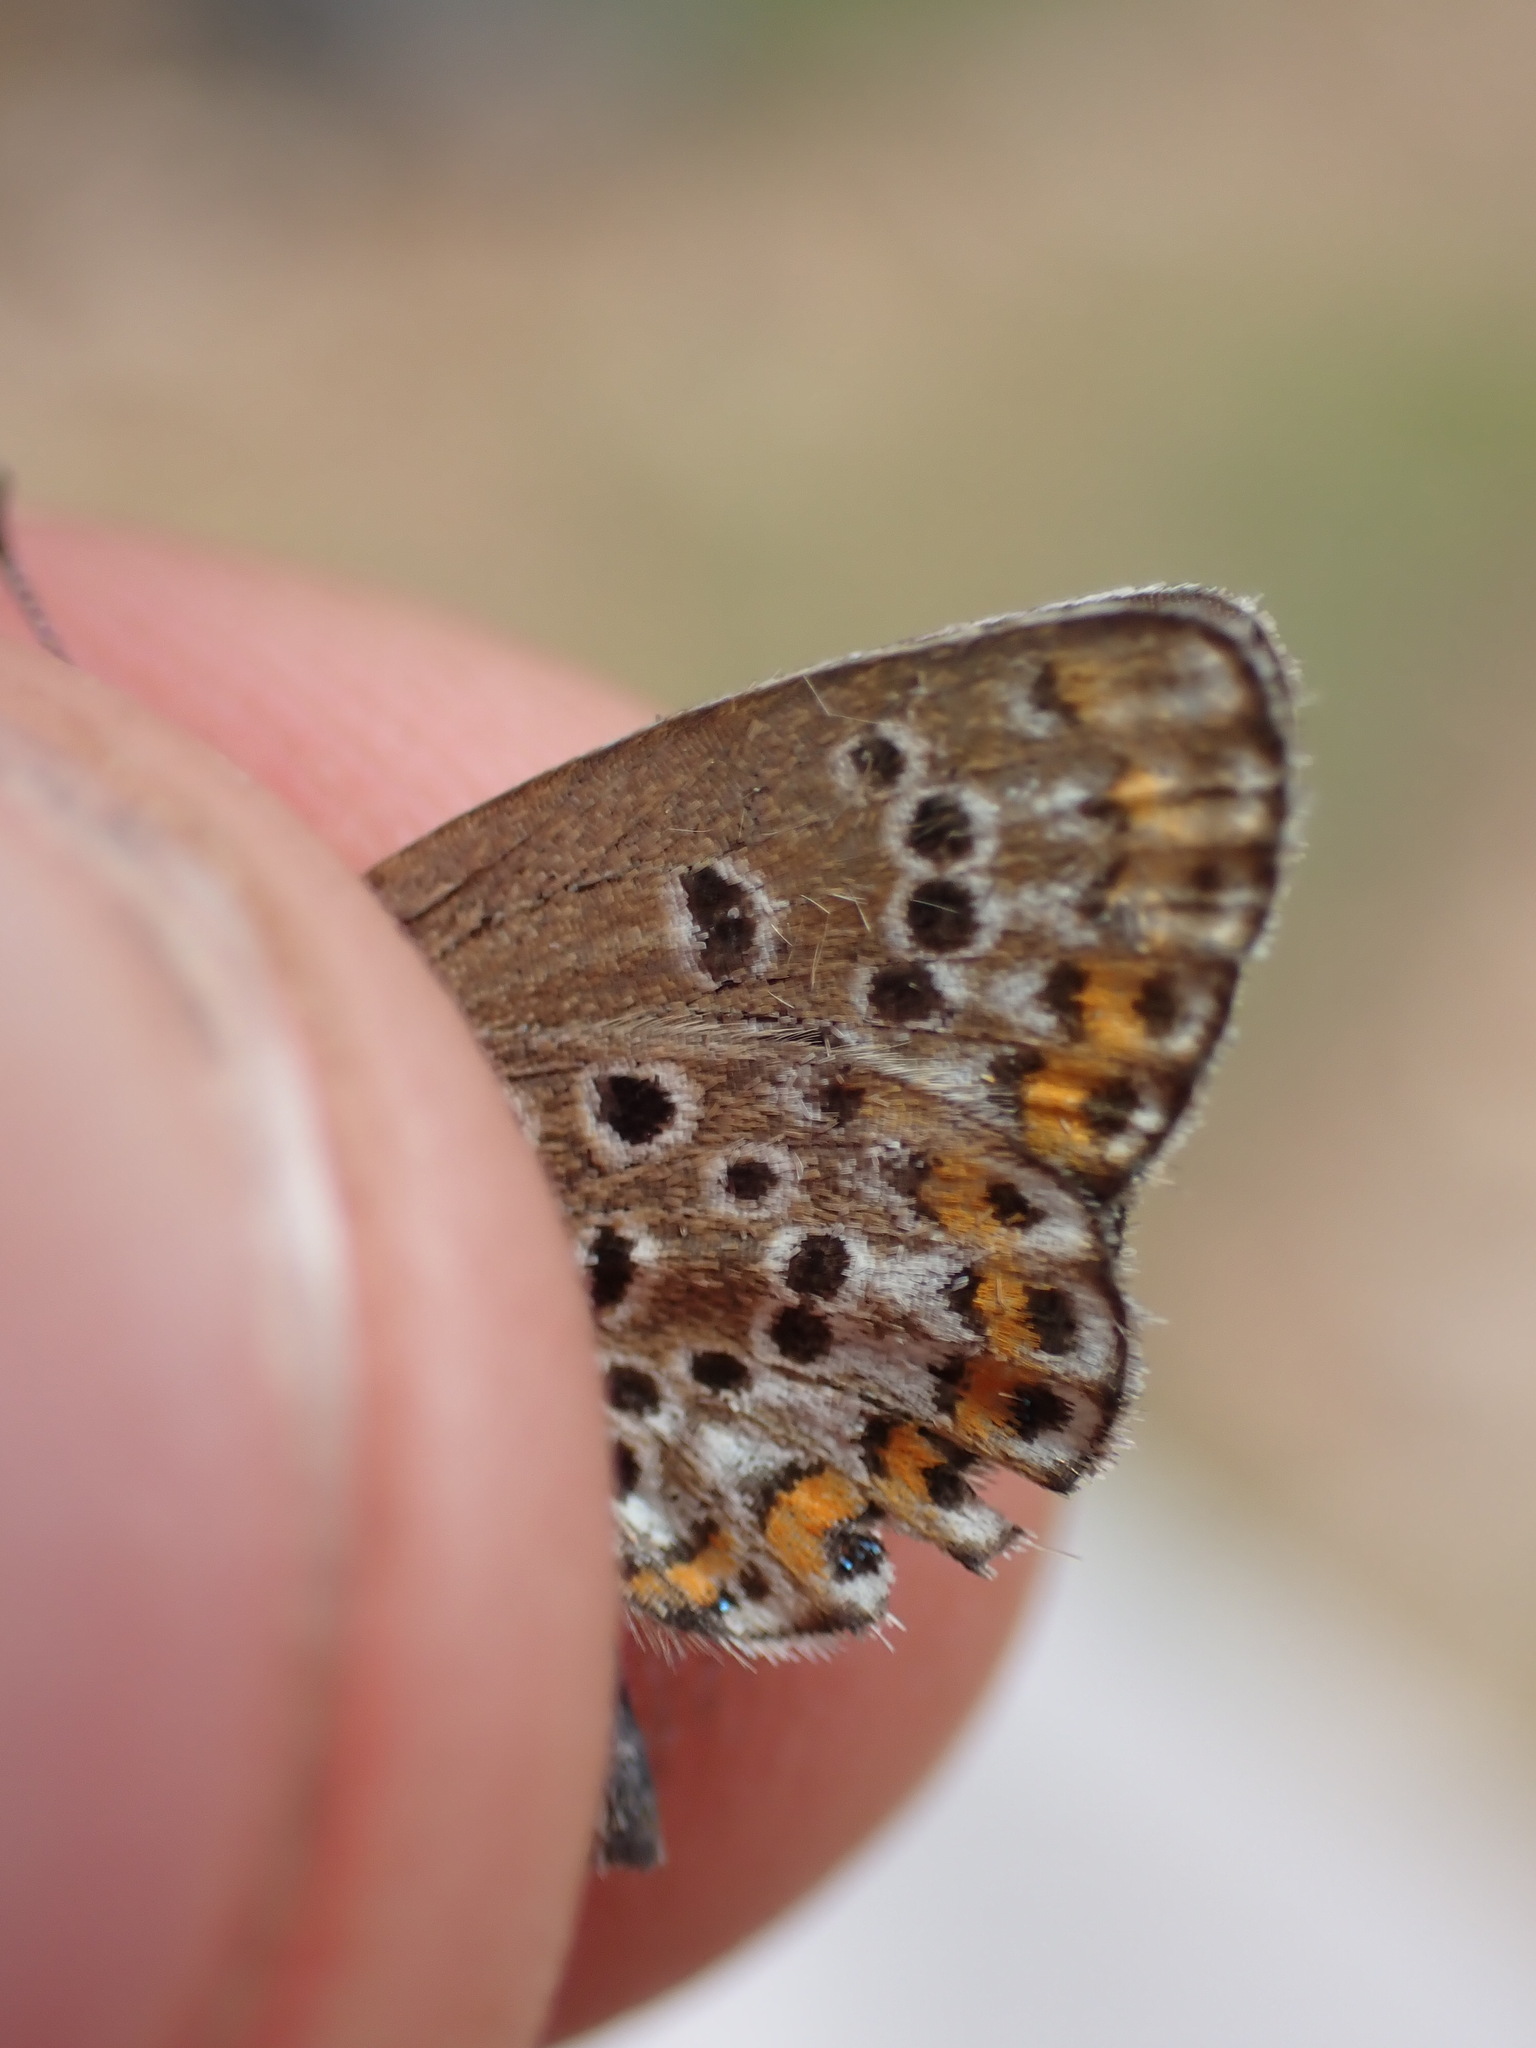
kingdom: Animalia
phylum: Arthropoda
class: Insecta
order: Lepidoptera
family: Lycaenidae
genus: Plebejus
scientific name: Plebejus argus
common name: Silver-studded blue
